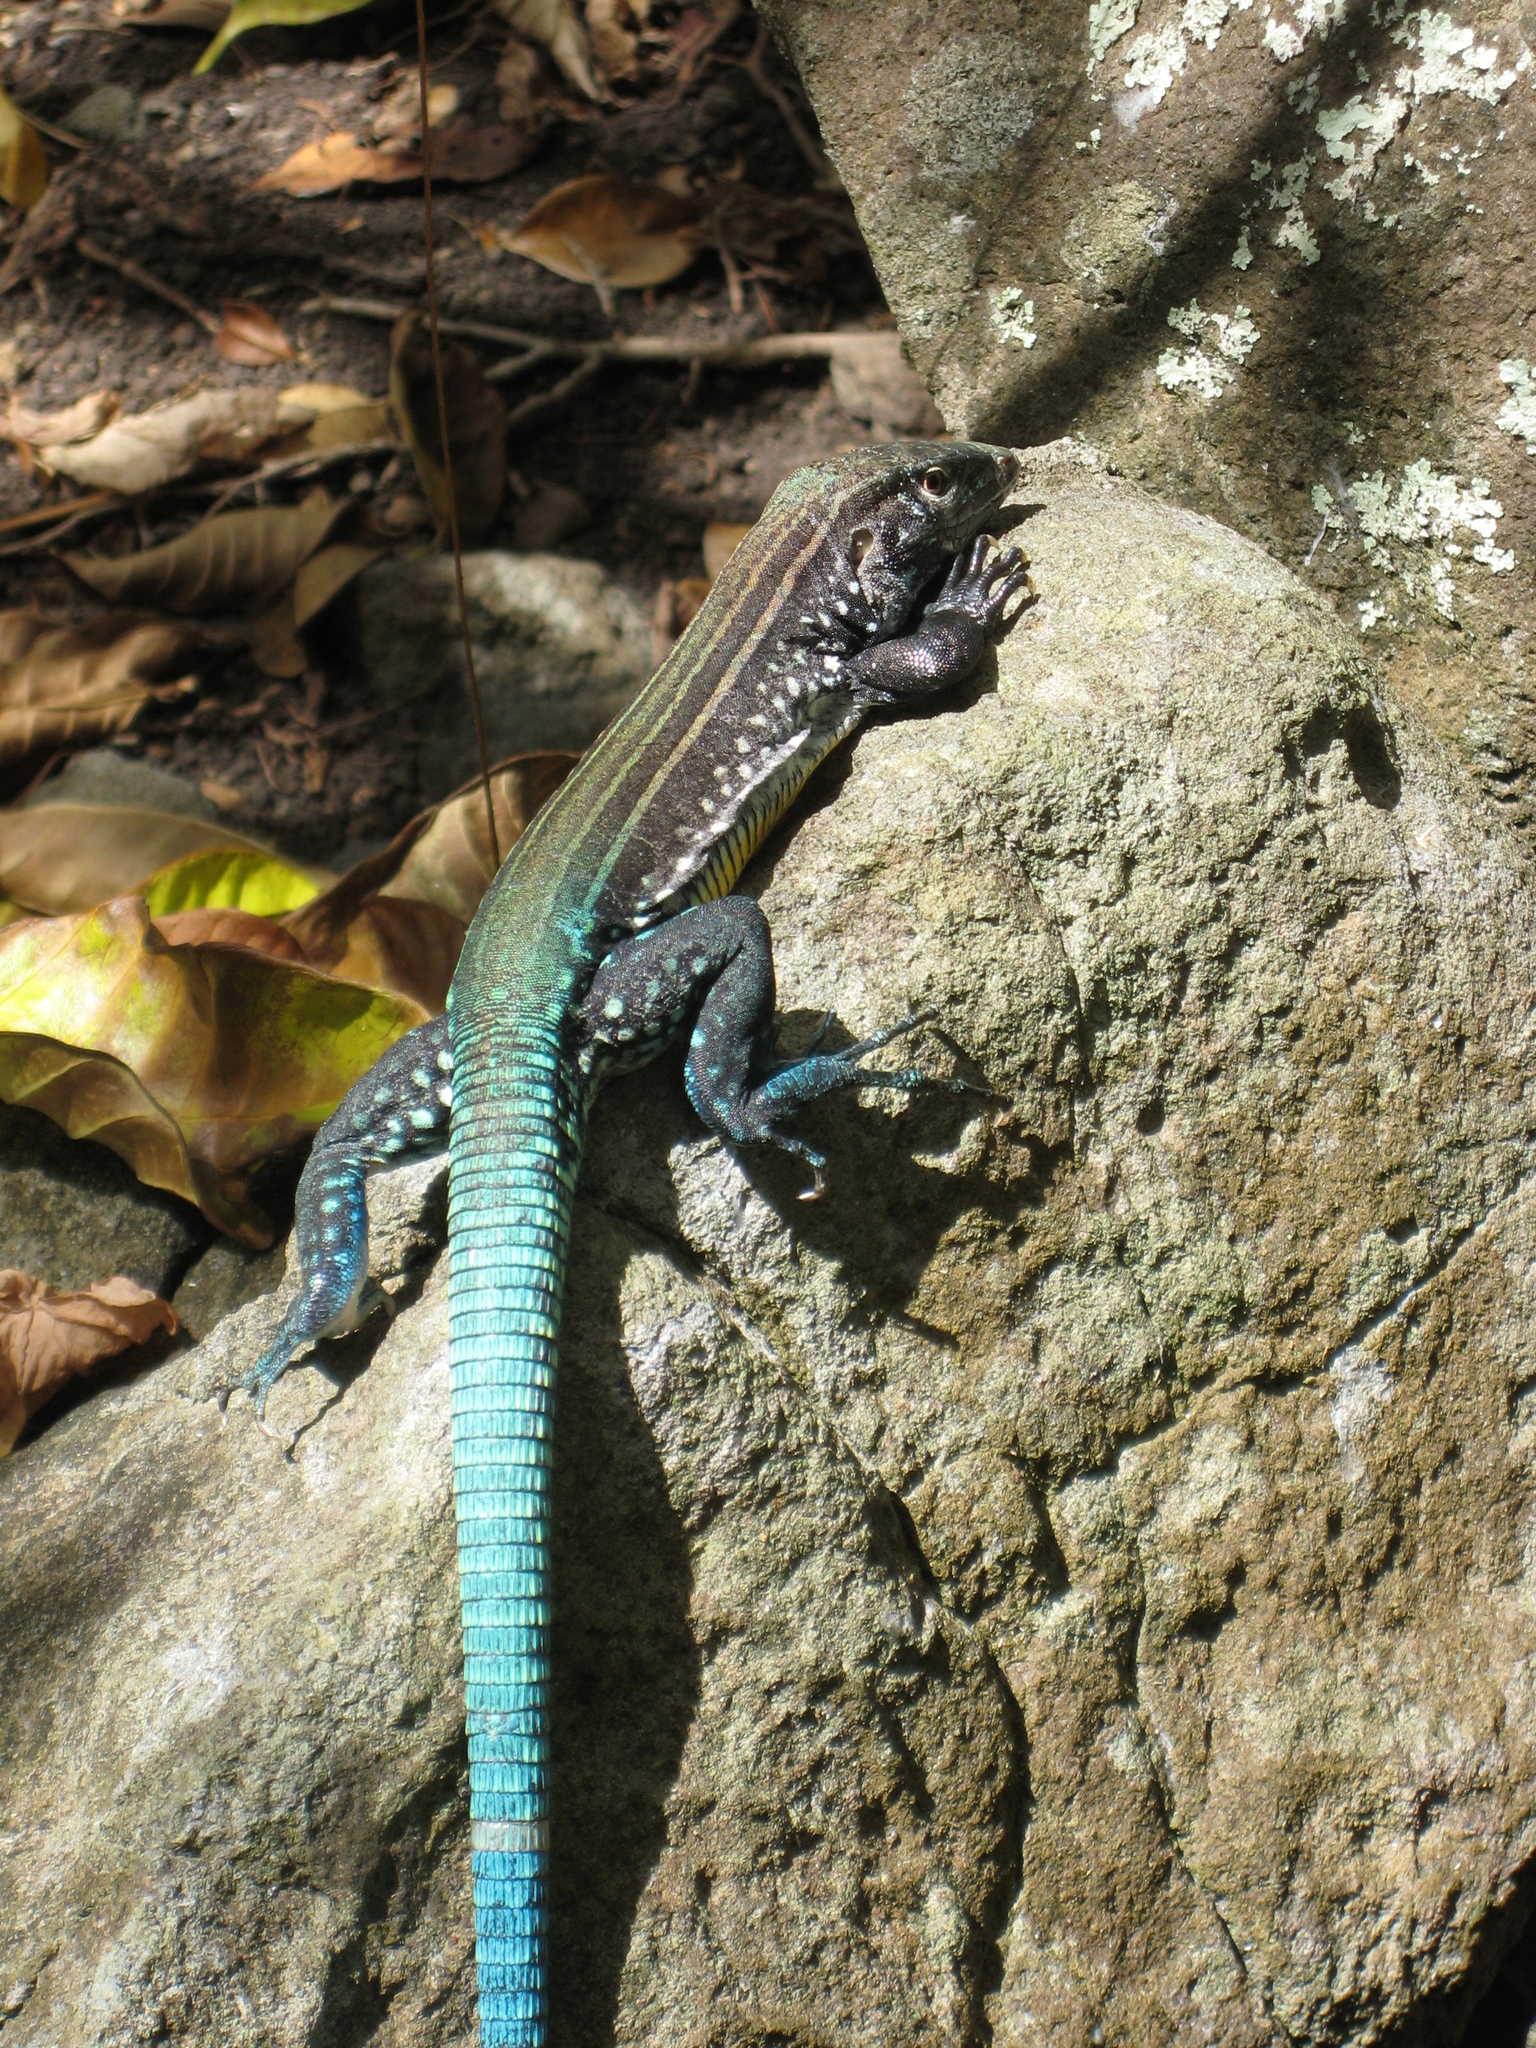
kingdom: Animalia
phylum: Chordata
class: Squamata
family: Teiidae
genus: Cnemidophorus
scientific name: Cnemidophorus vanzoi
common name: Saint lucian whiptail
